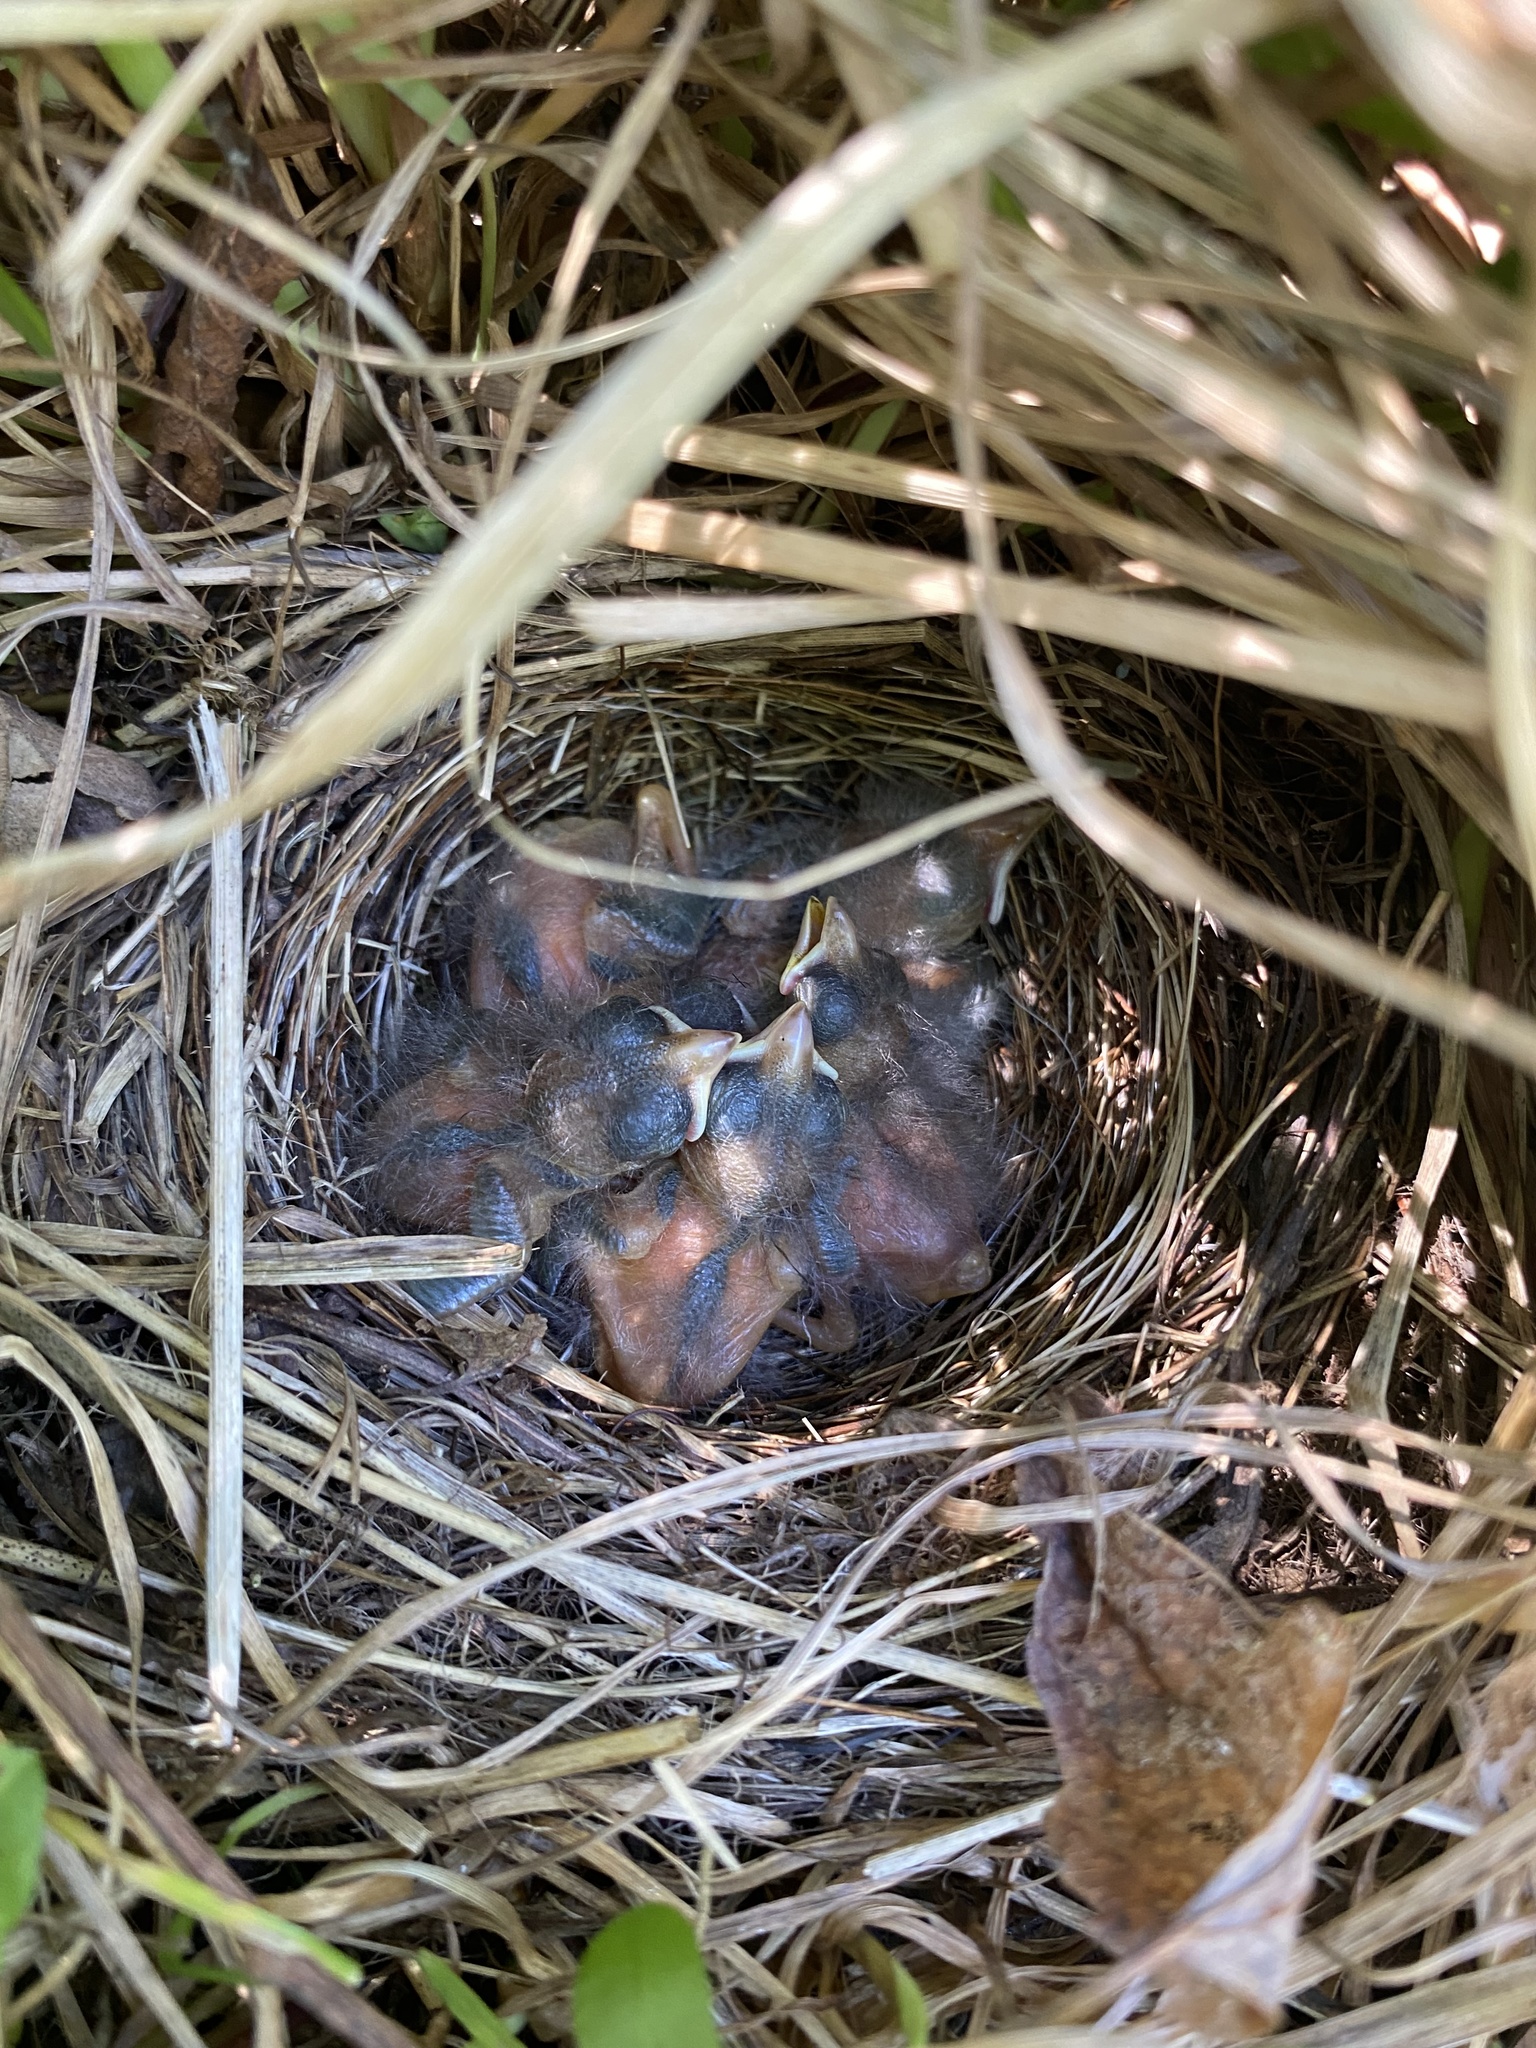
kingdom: Animalia
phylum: Chordata
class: Aves
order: Passeriformes
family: Passerellidae
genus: Melospiza
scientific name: Melospiza melodia
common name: Song sparrow
